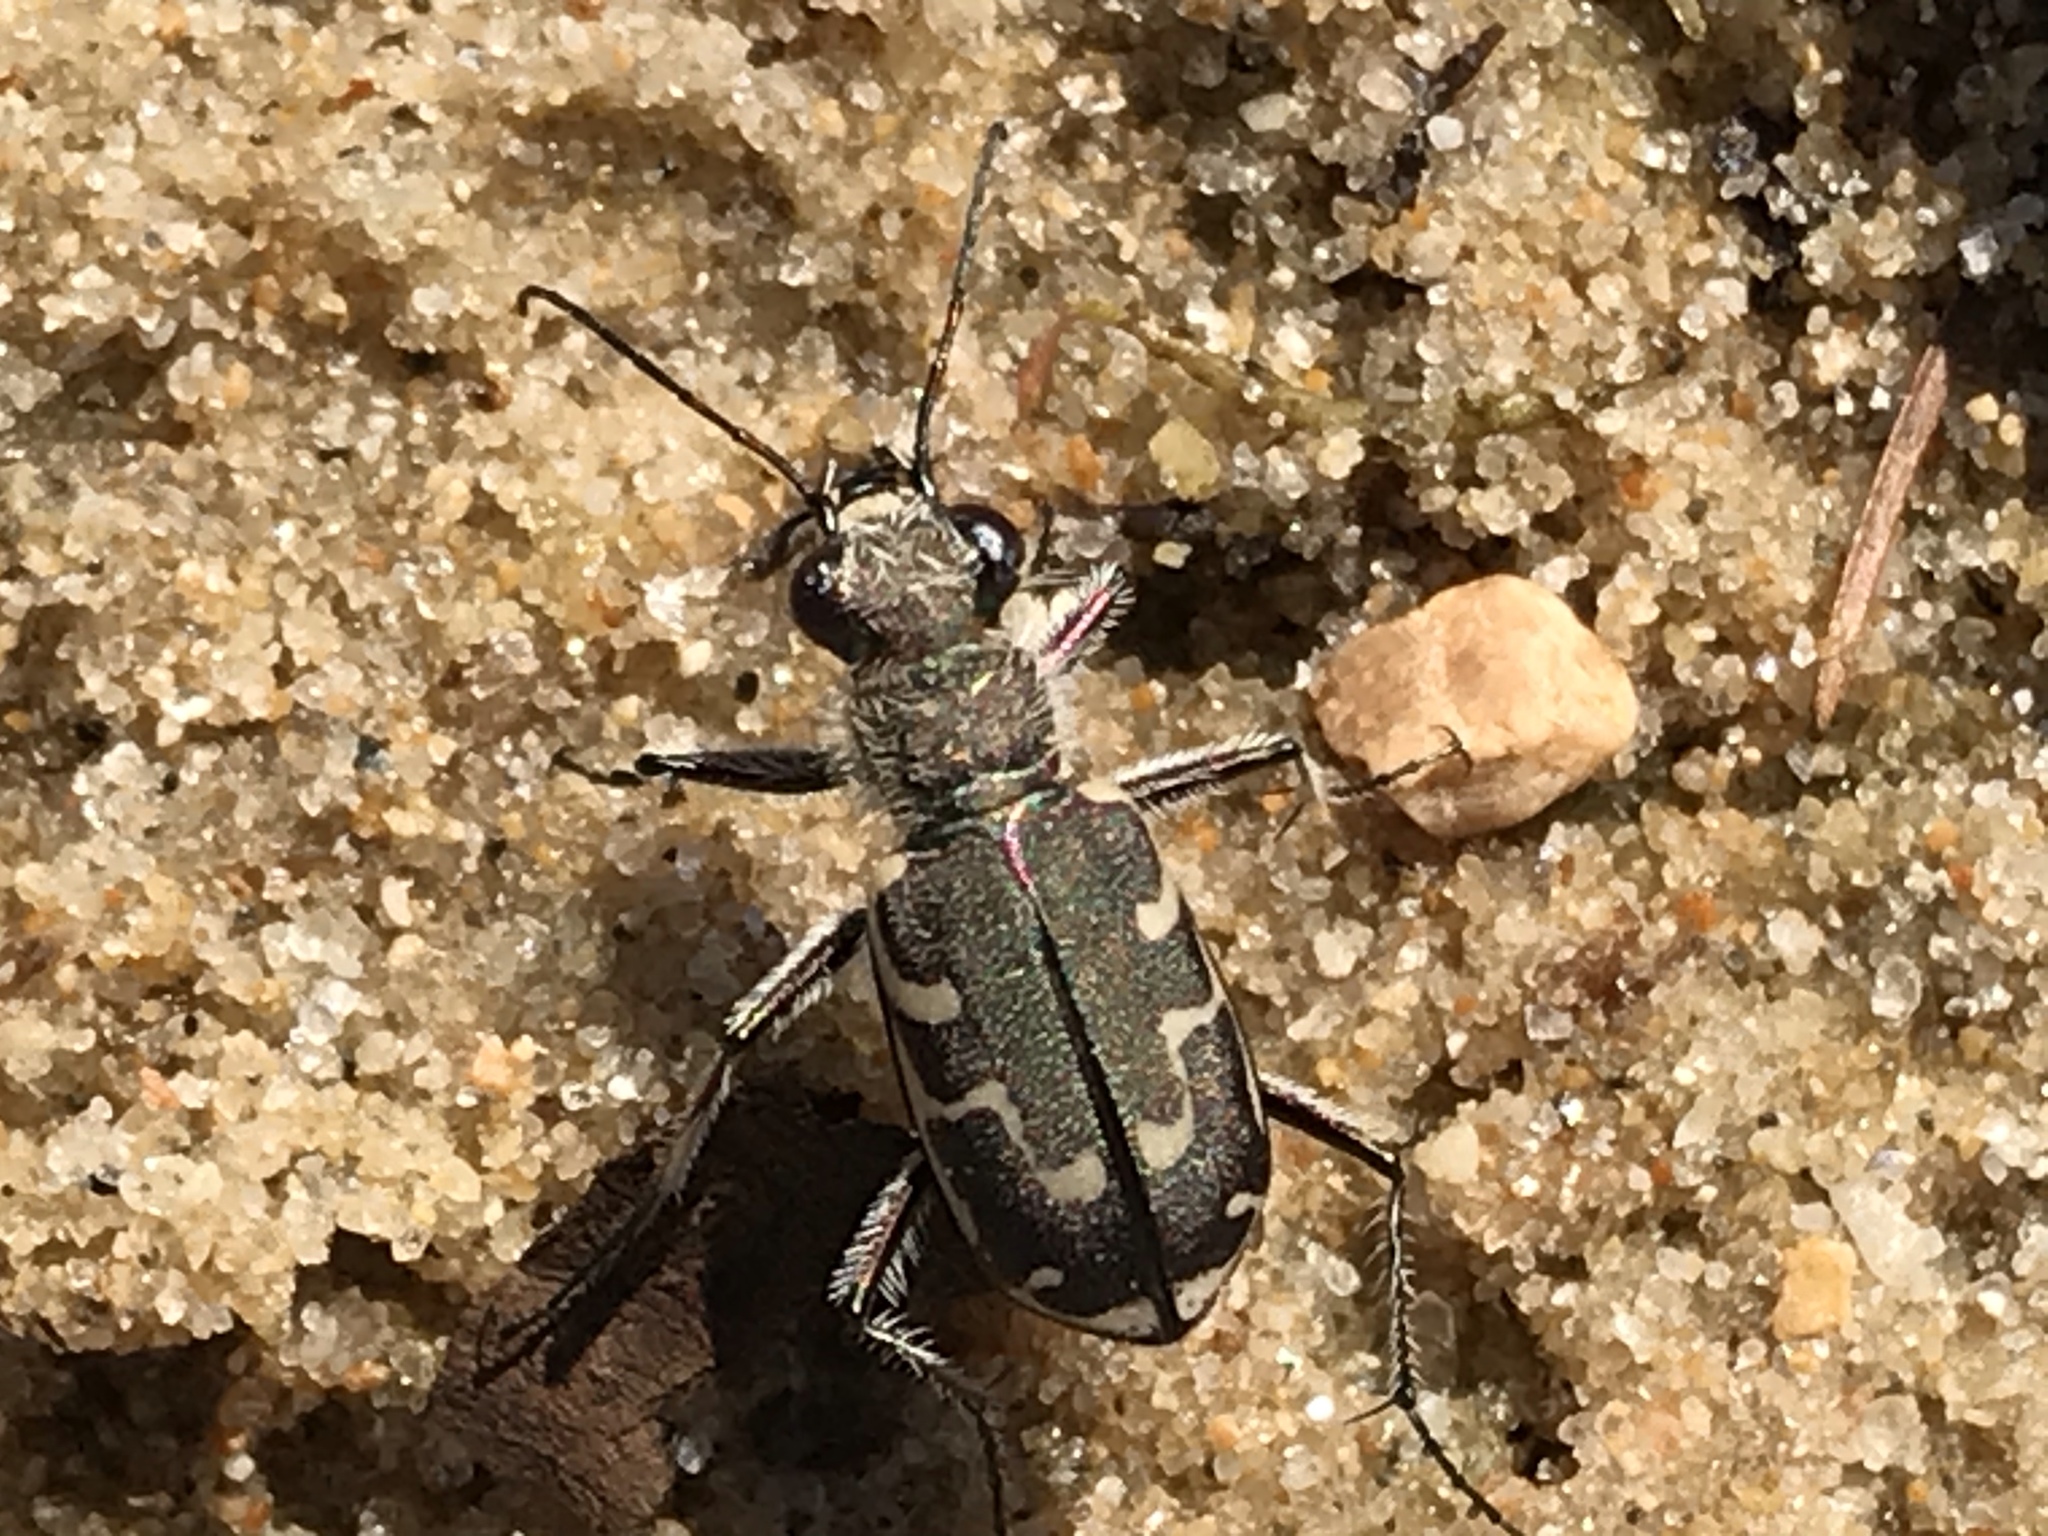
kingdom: Animalia
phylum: Arthropoda
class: Insecta
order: Coleoptera
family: Carabidae
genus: Cicindela
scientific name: Cicindela repanda
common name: Bronzed tiger beetle
